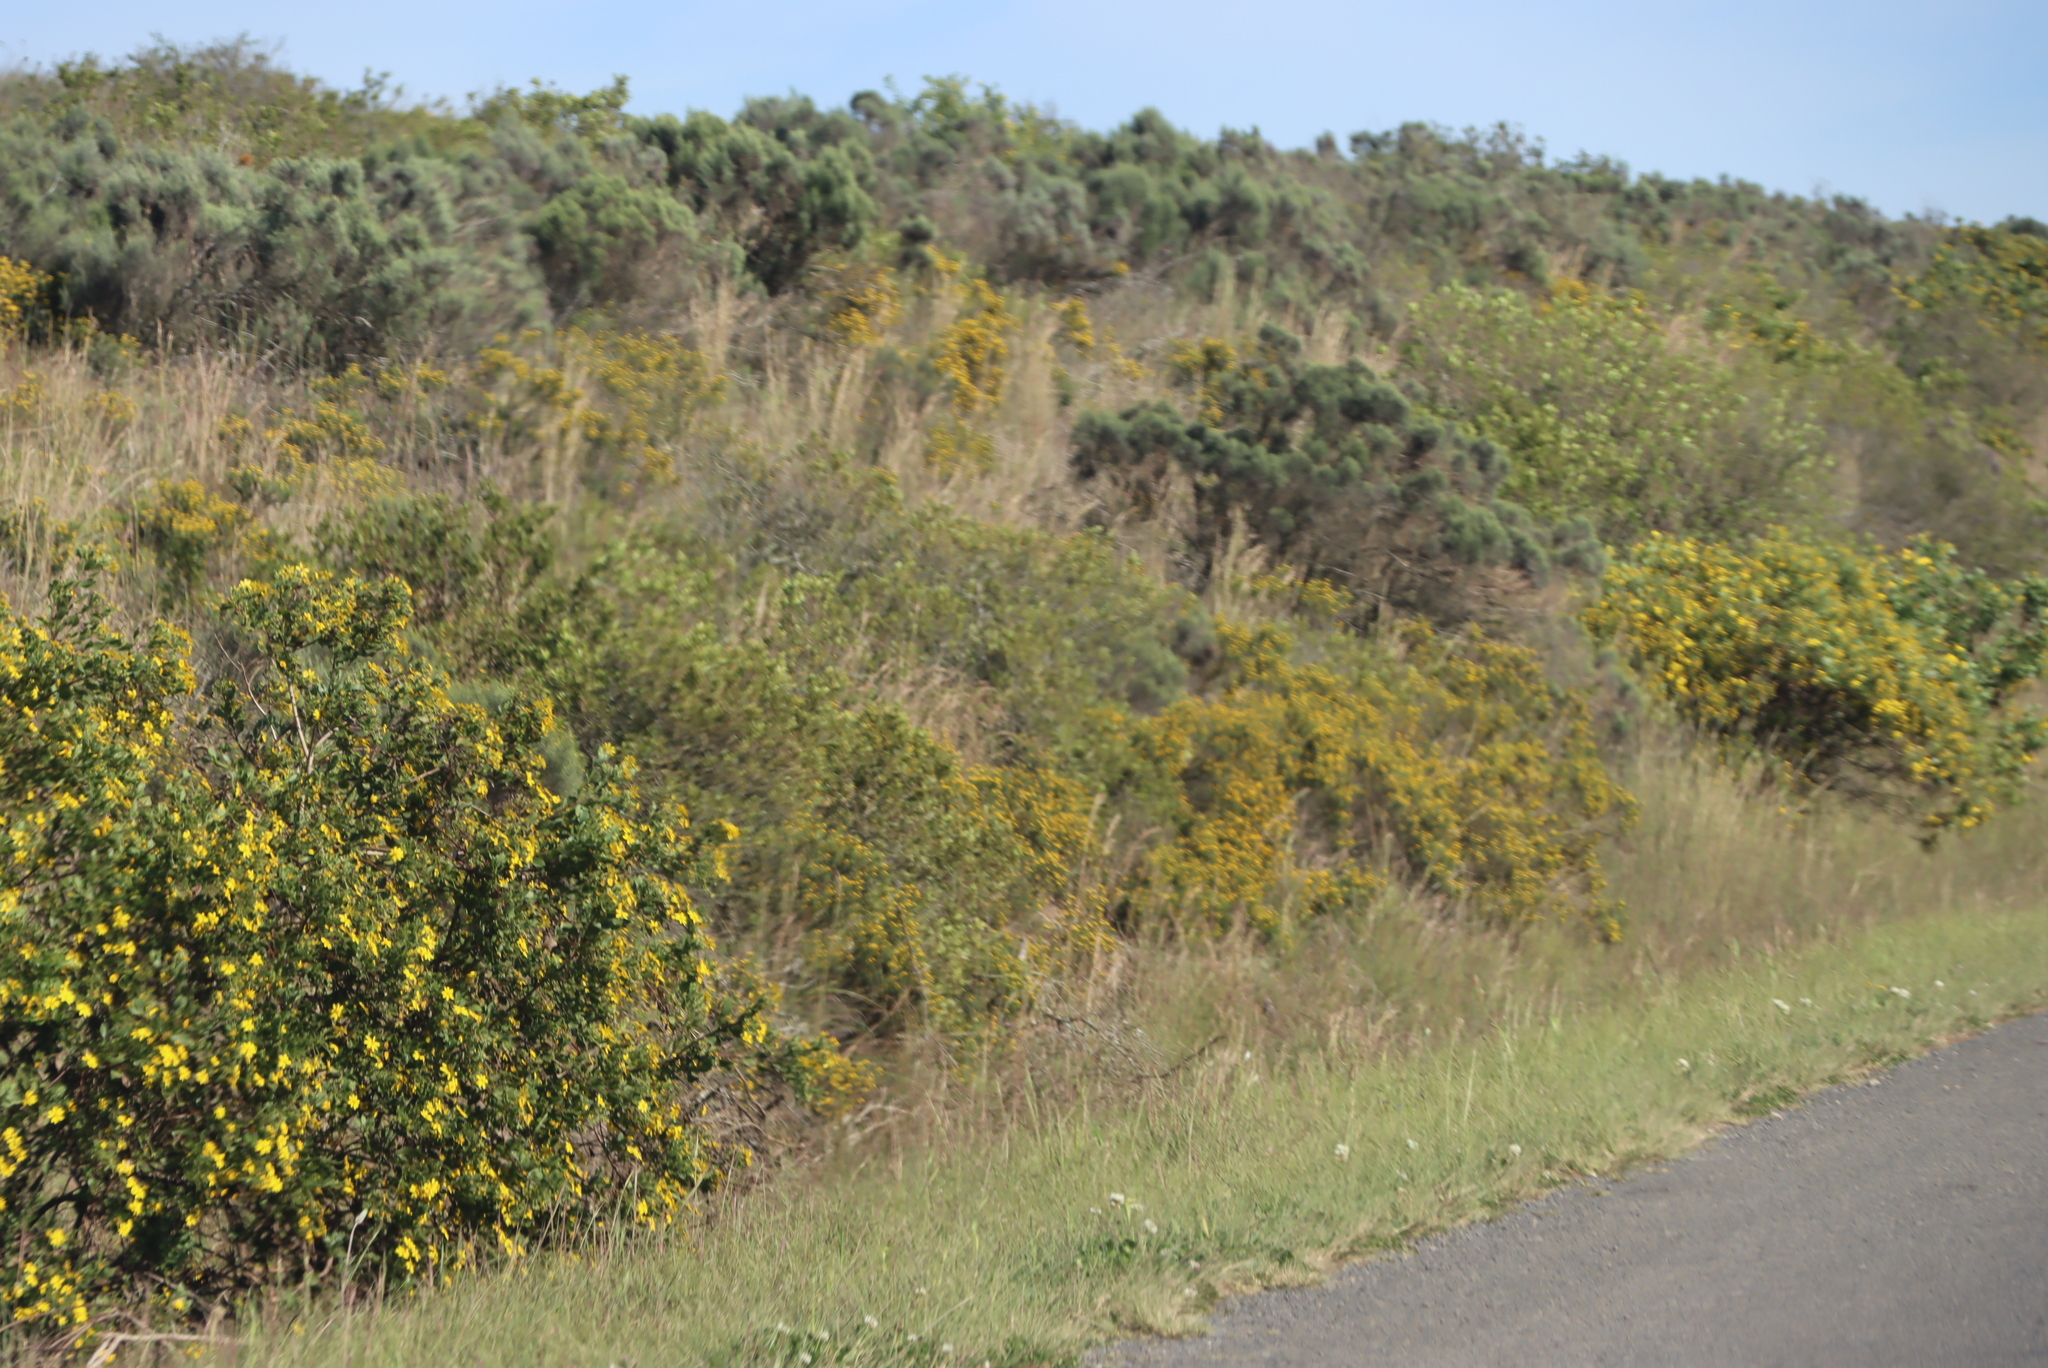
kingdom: Plantae
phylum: Tracheophyta
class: Magnoliopsida
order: Asterales
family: Asteraceae
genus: Dicerothamnus
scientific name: Dicerothamnus rhinocerotis
